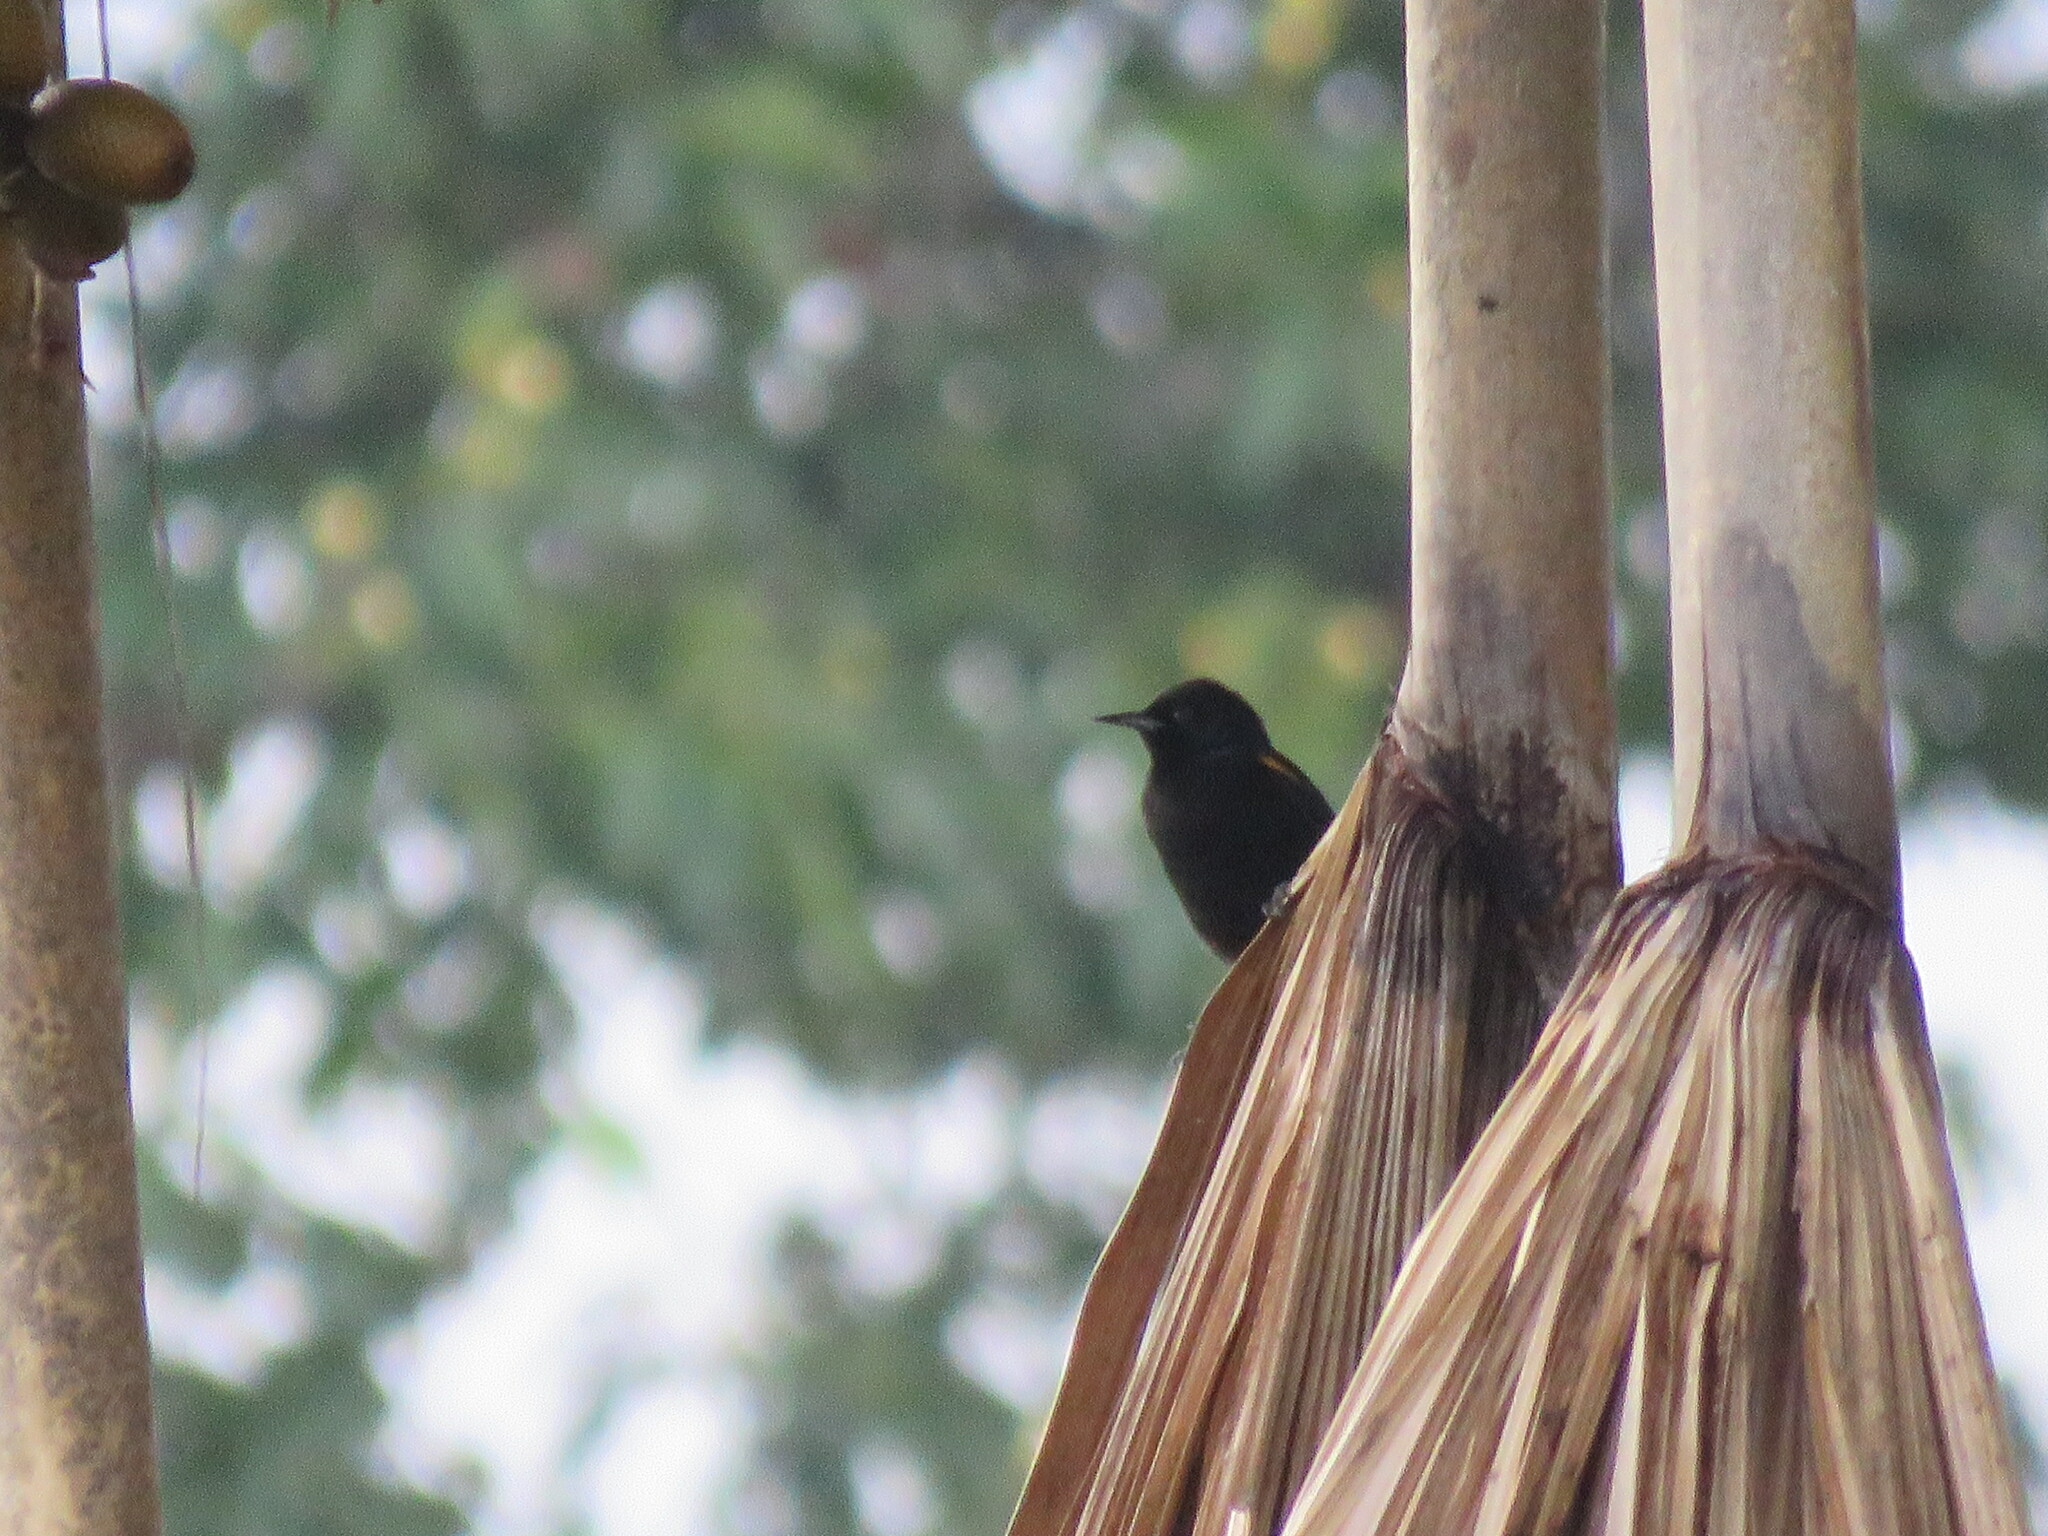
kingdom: Animalia
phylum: Chordata
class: Aves
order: Passeriformes
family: Icteridae
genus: Icterus
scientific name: Icterus cayanensis
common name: Epaulet oriole
